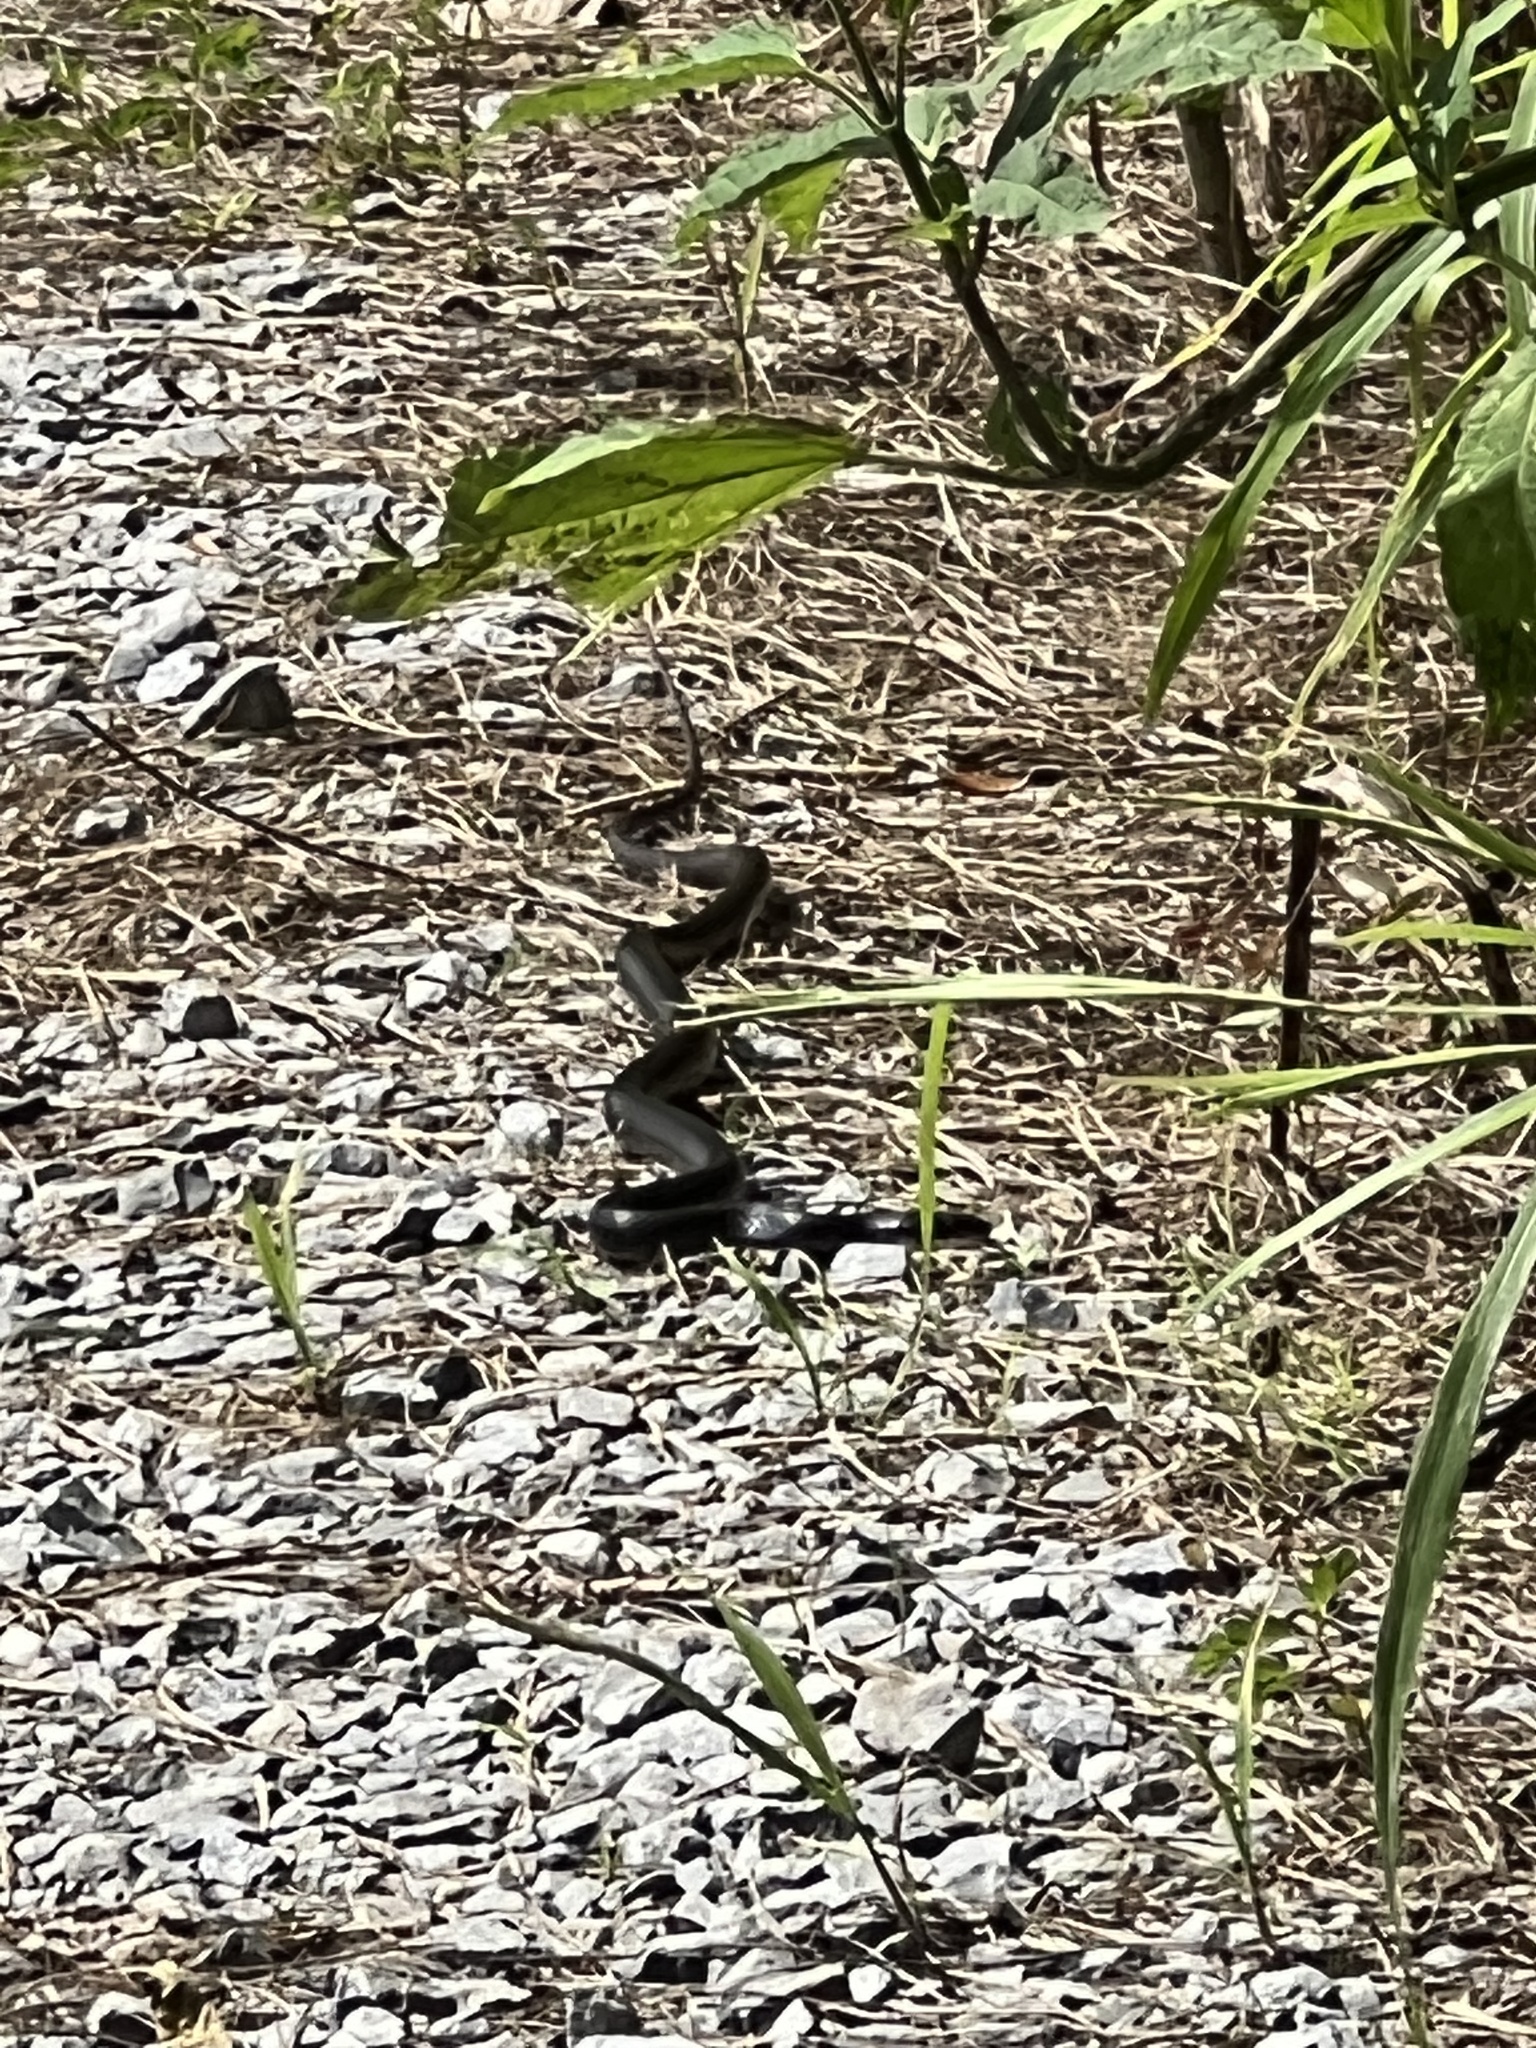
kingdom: Animalia
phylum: Chordata
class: Squamata
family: Colubridae
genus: Coluber
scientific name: Coluber constrictor
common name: Eastern racer
